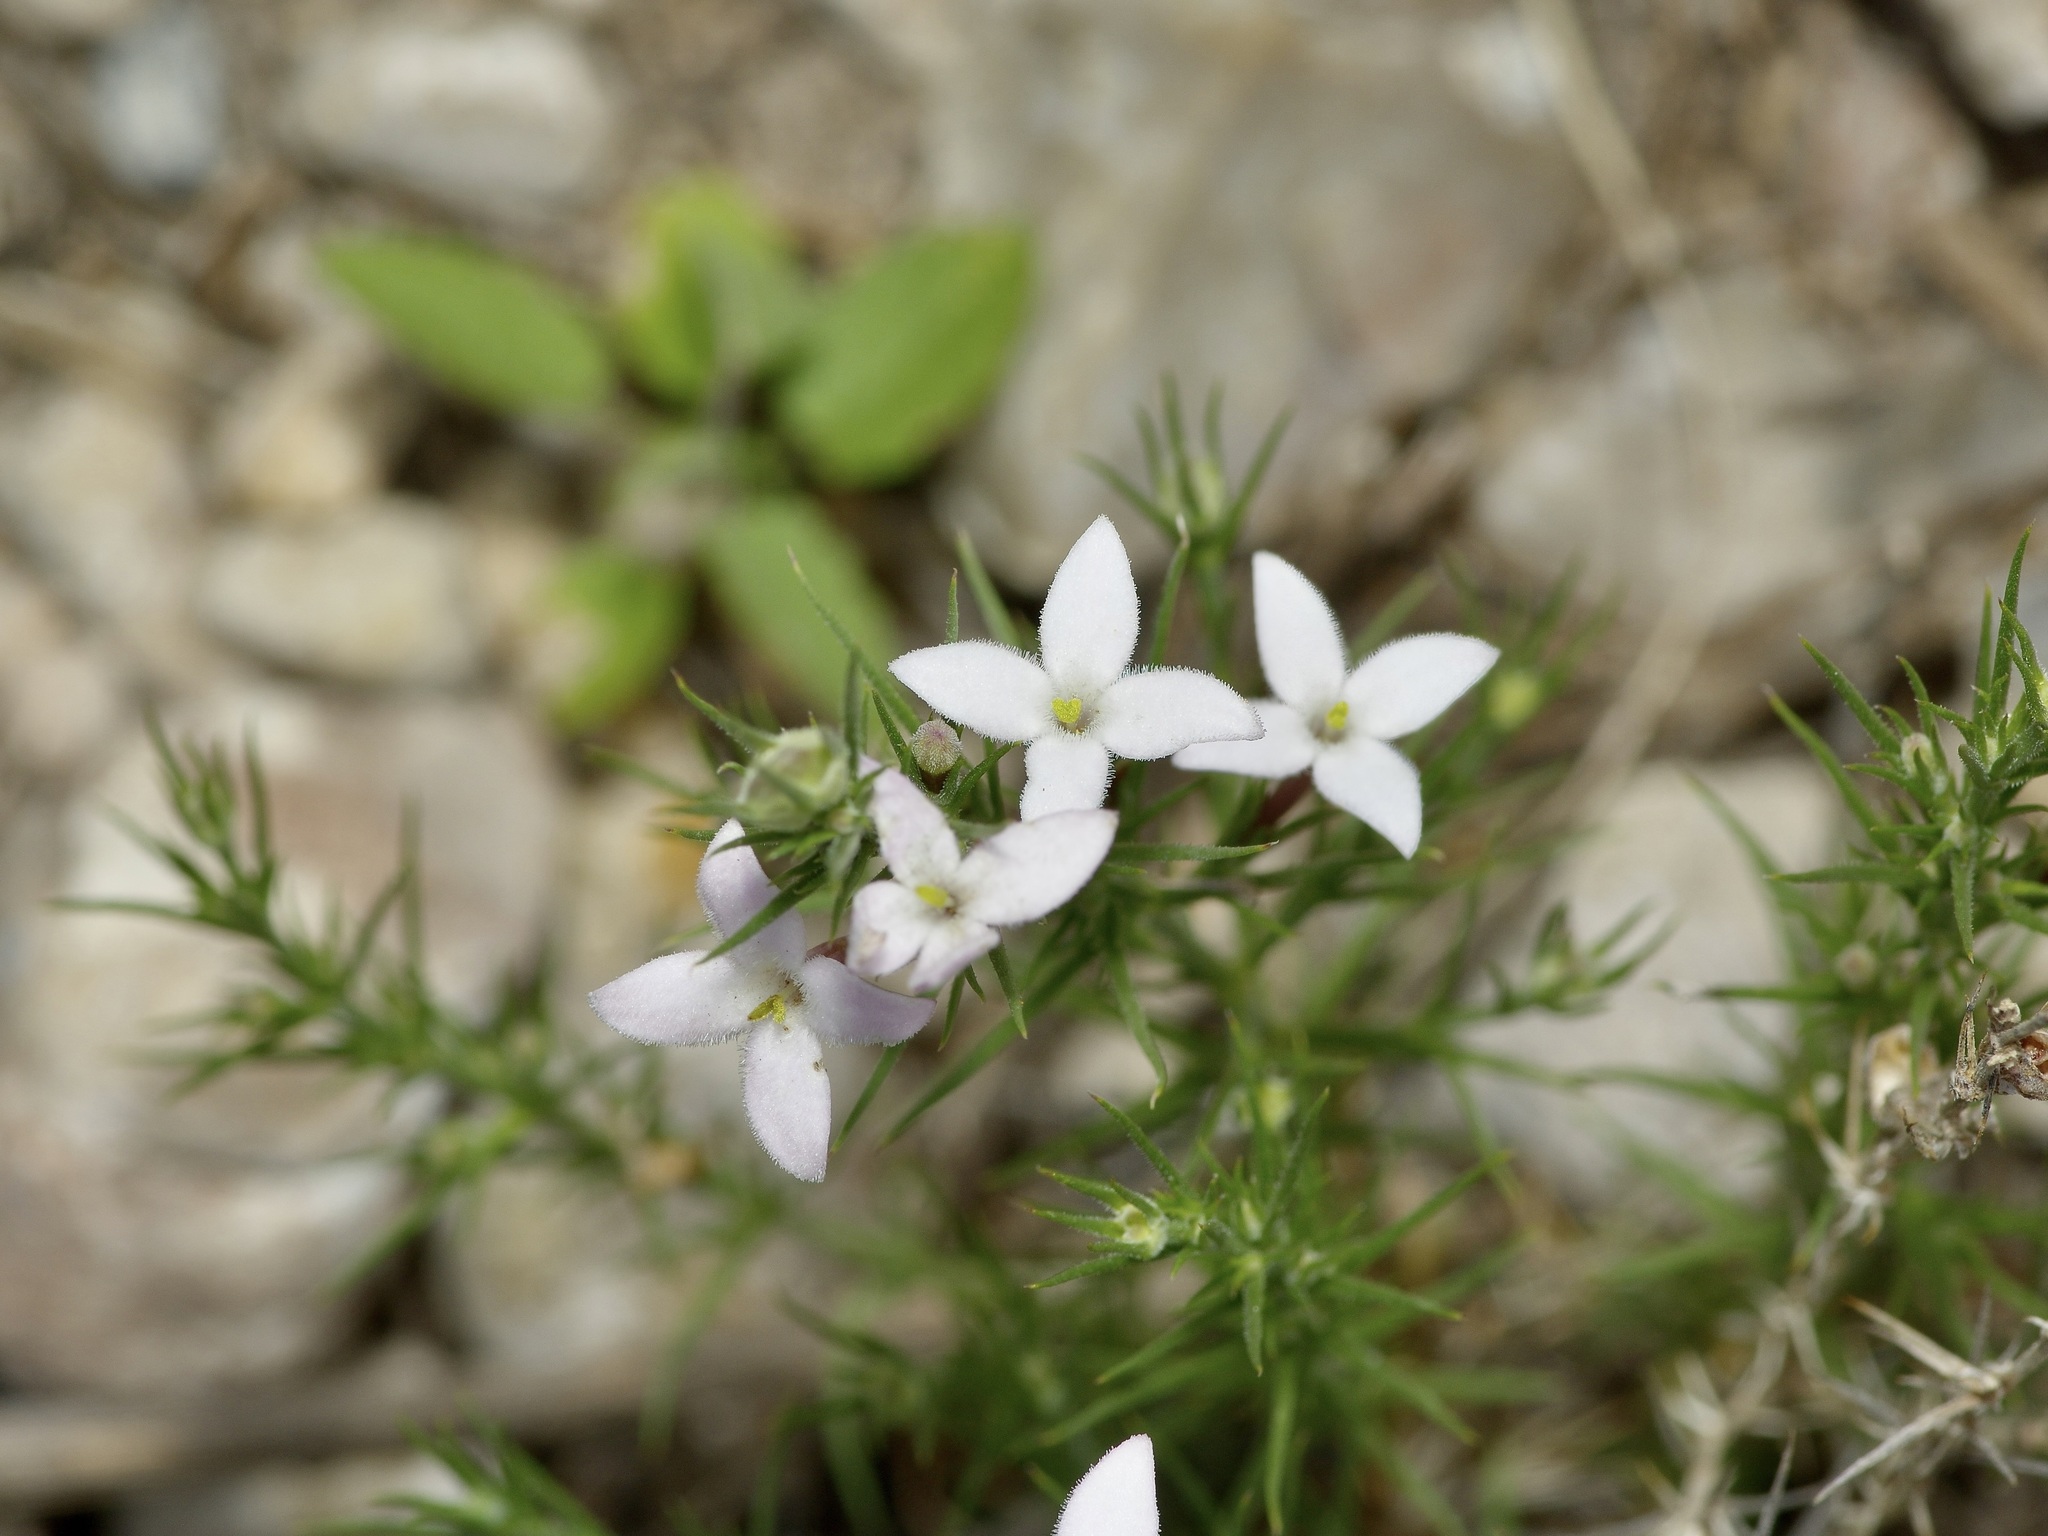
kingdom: Plantae
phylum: Tracheophyta
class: Magnoliopsida
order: Gentianales
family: Rubiaceae
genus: Houstonia
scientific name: Houstonia acerosa
